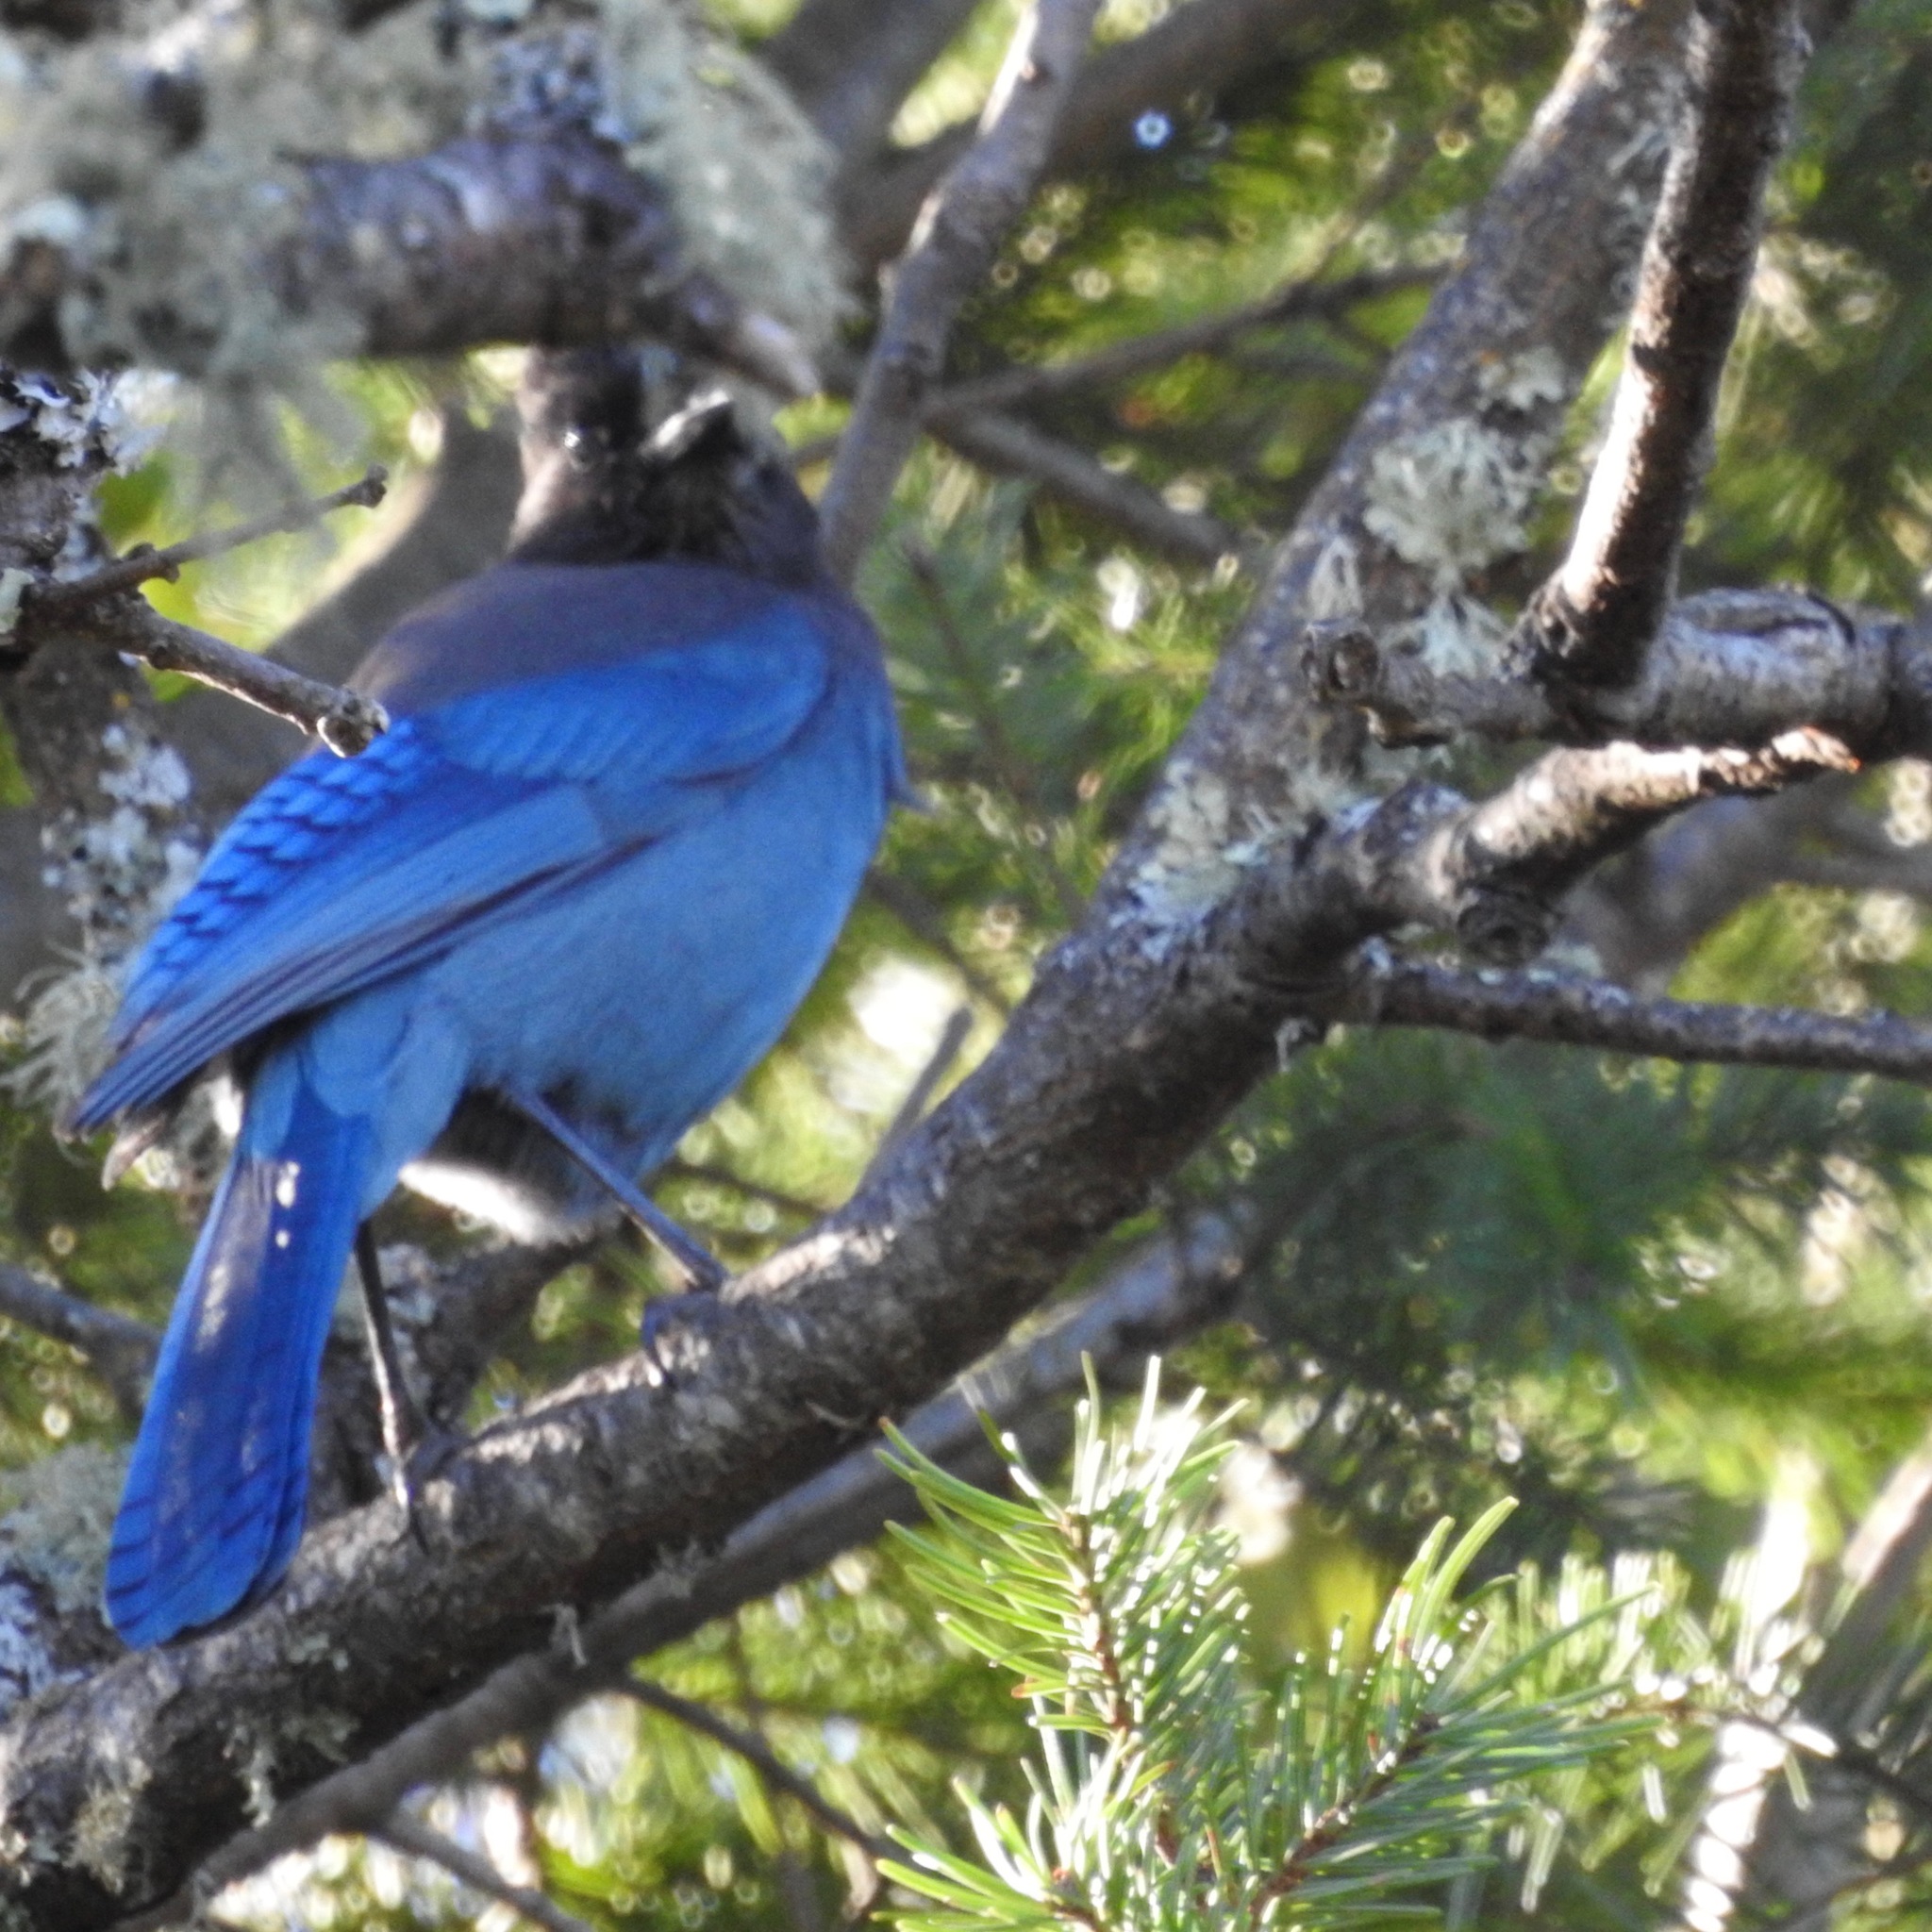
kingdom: Animalia
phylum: Chordata
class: Aves
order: Passeriformes
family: Corvidae
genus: Cyanocitta
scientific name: Cyanocitta stelleri
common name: Steller's jay
